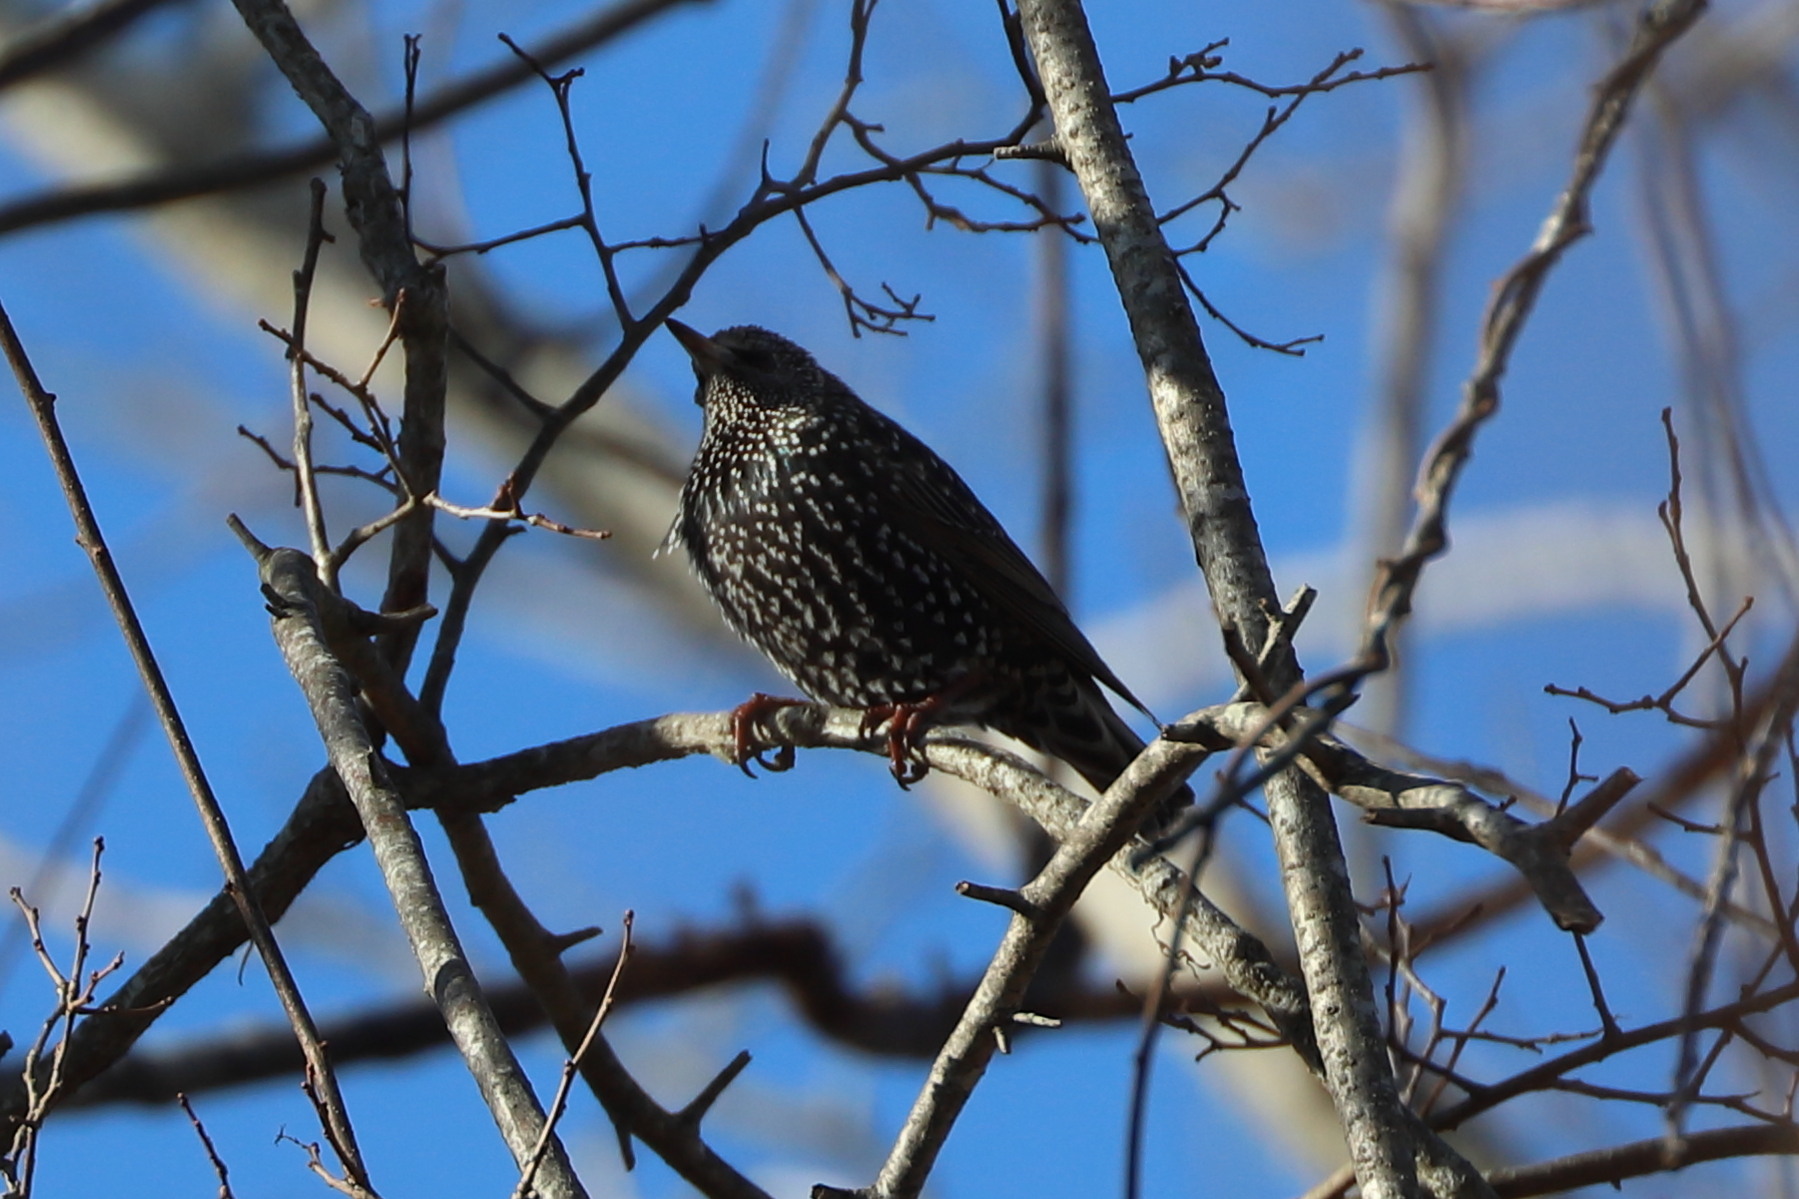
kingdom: Animalia
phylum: Chordata
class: Aves
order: Passeriformes
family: Sturnidae
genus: Sturnus
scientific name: Sturnus vulgaris
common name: Common starling
